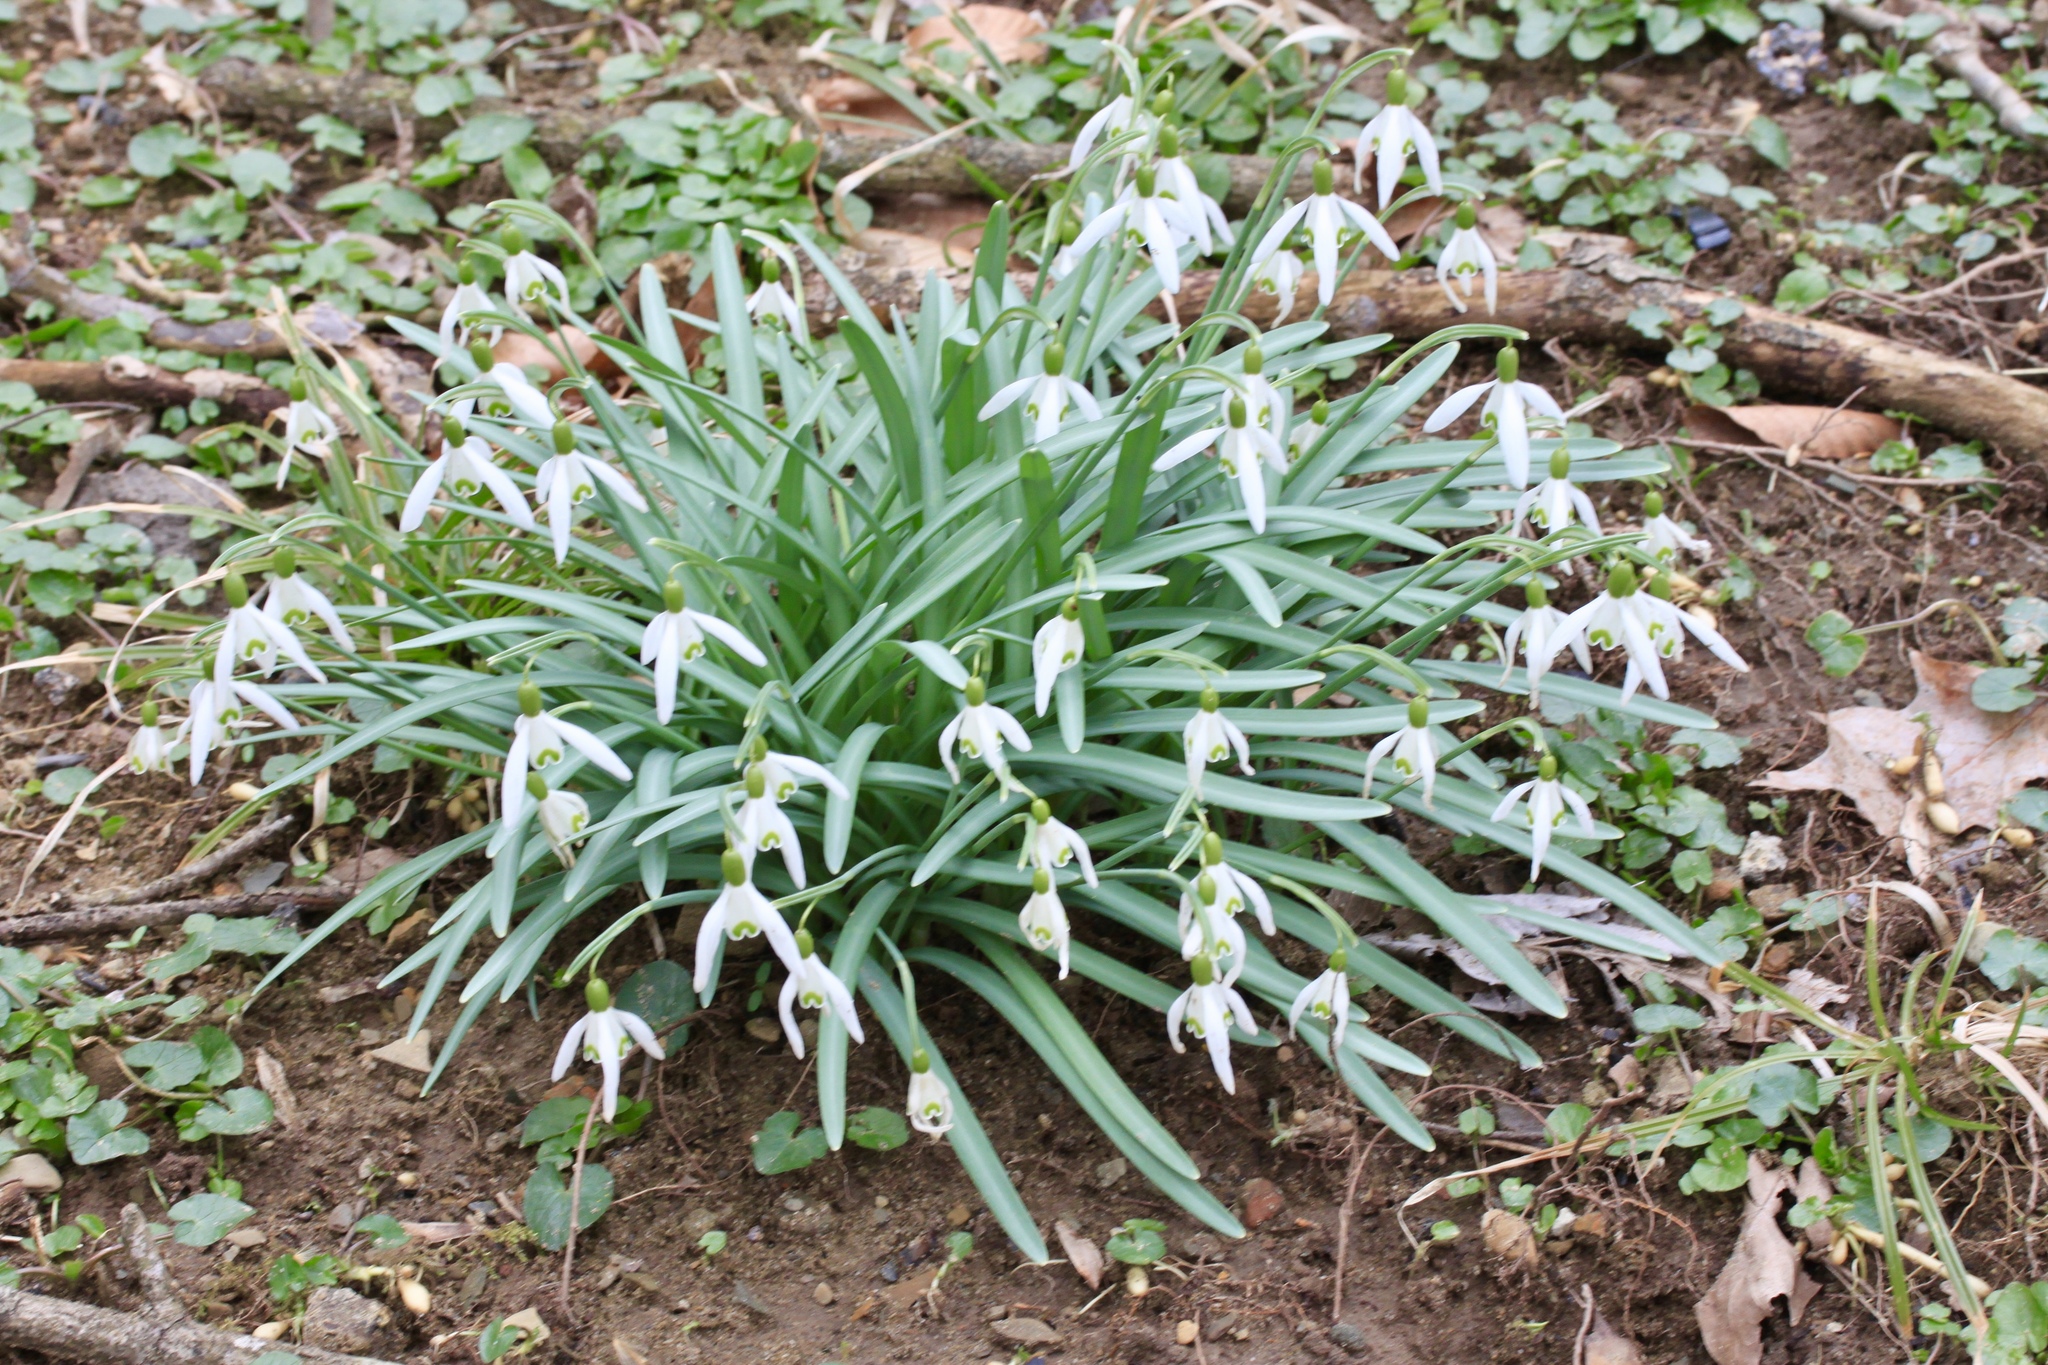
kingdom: Plantae
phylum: Tracheophyta
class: Liliopsida
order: Asparagales
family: Amaryllidaceae
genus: Galanthus
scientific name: Galanthus nivalis
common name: Snowdrop
